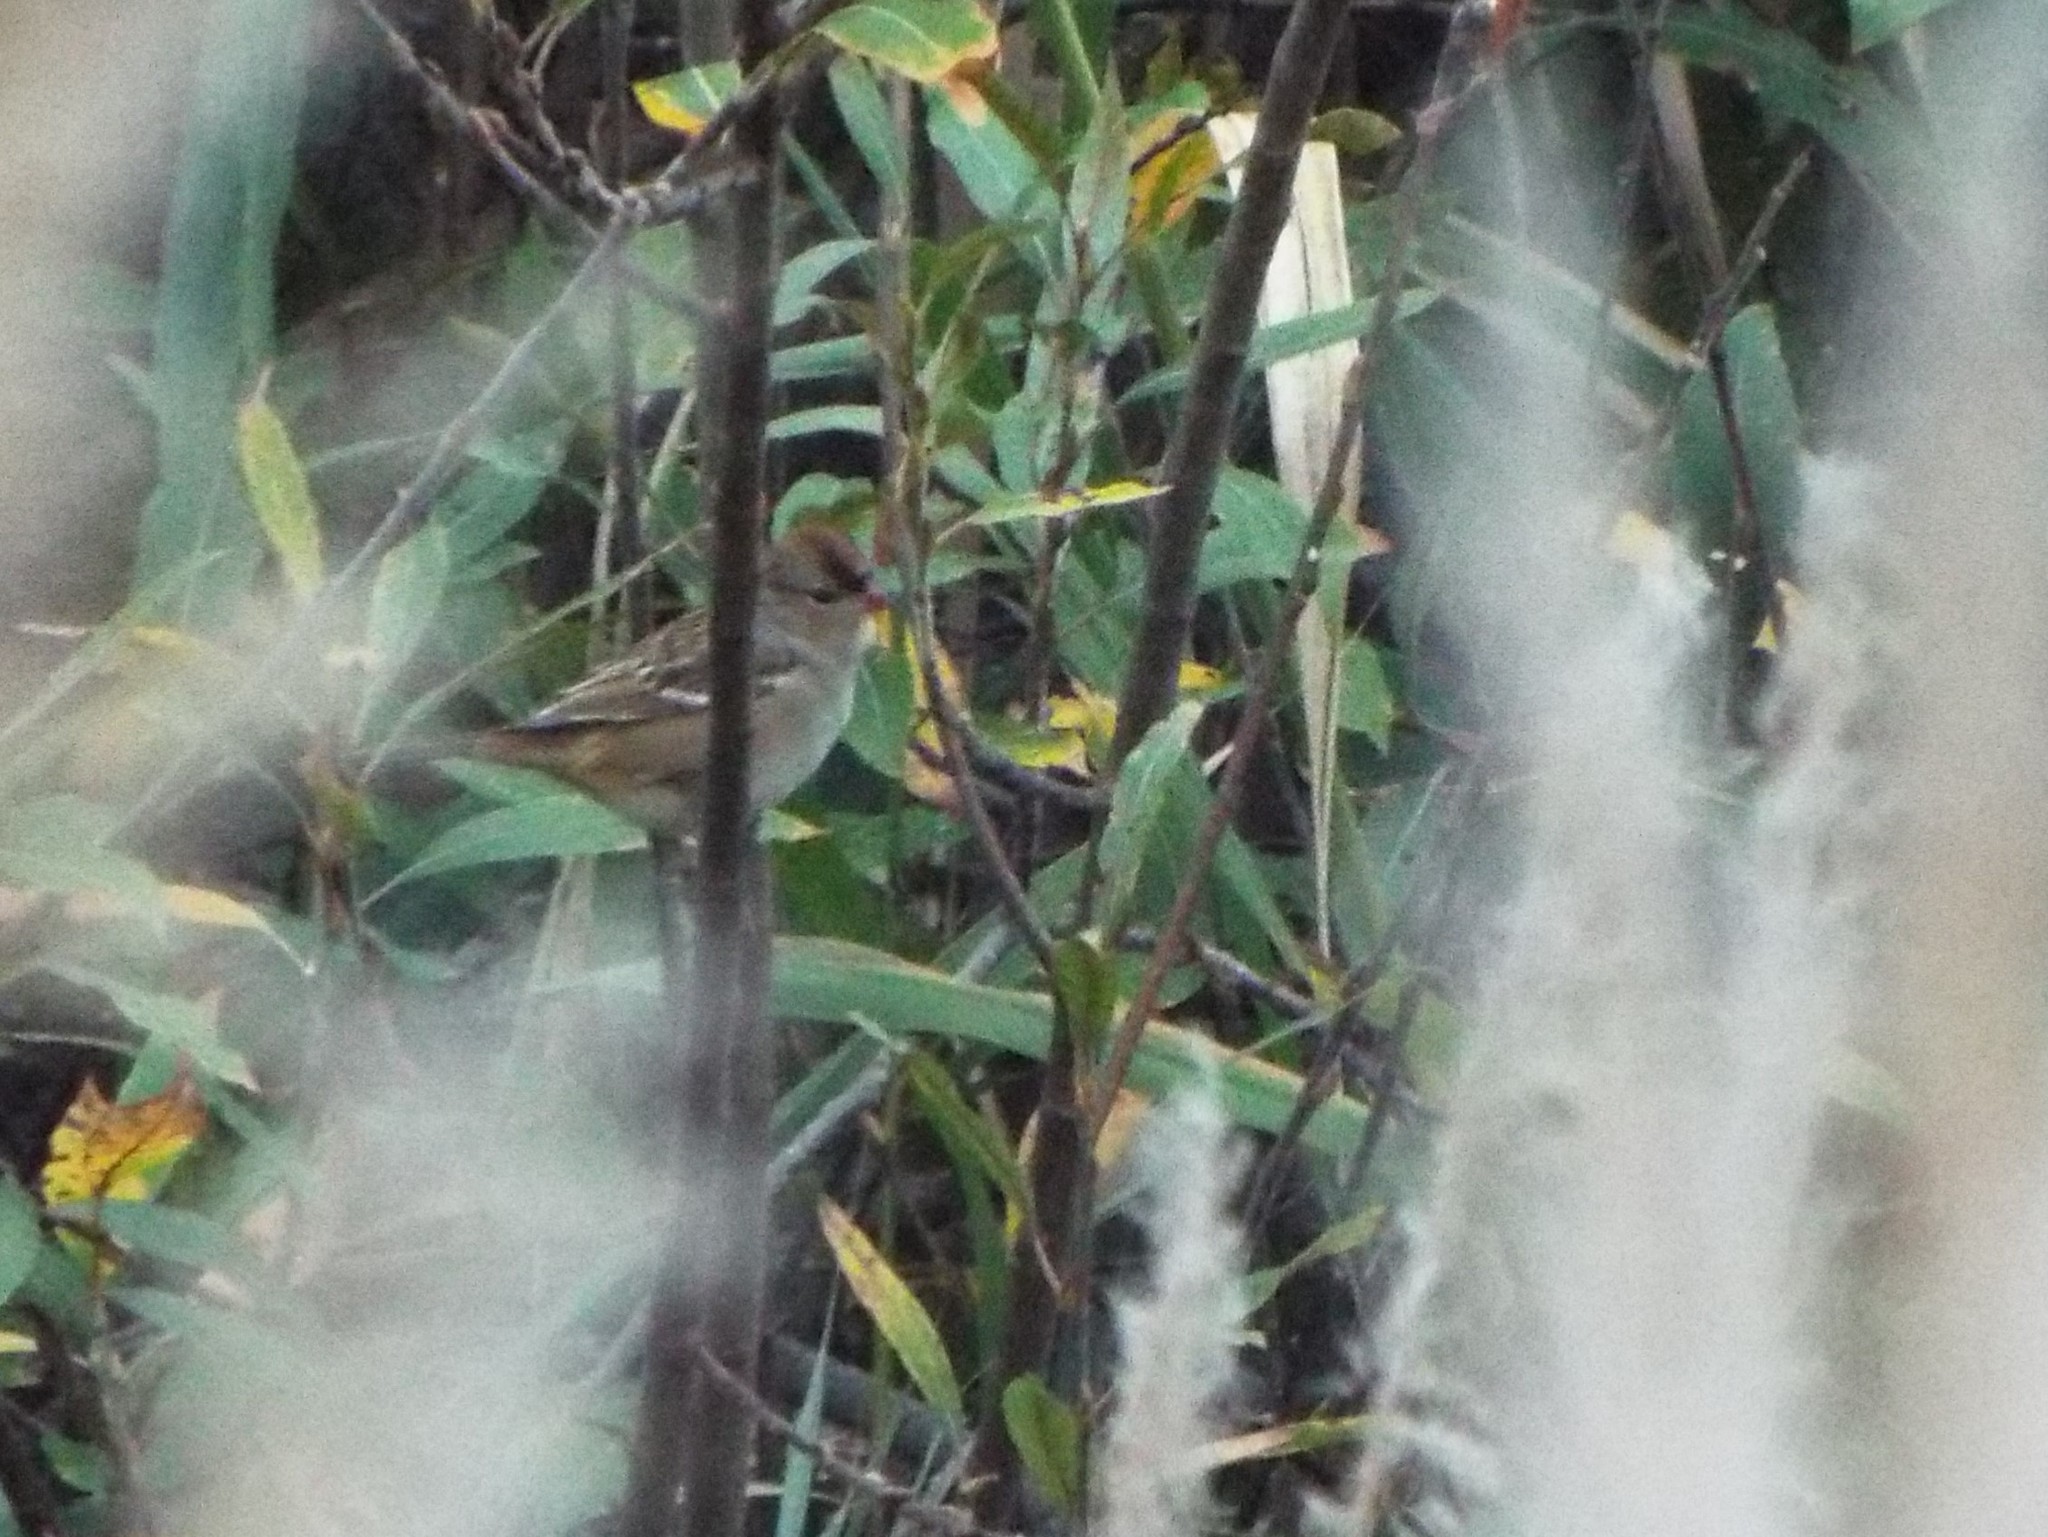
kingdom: Animalia
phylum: Chordata
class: Aves
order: Passeriformes
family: Passerellidae
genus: Zonotrichia
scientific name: Zonotrichia leucophrys
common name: White-crowned sparrow
